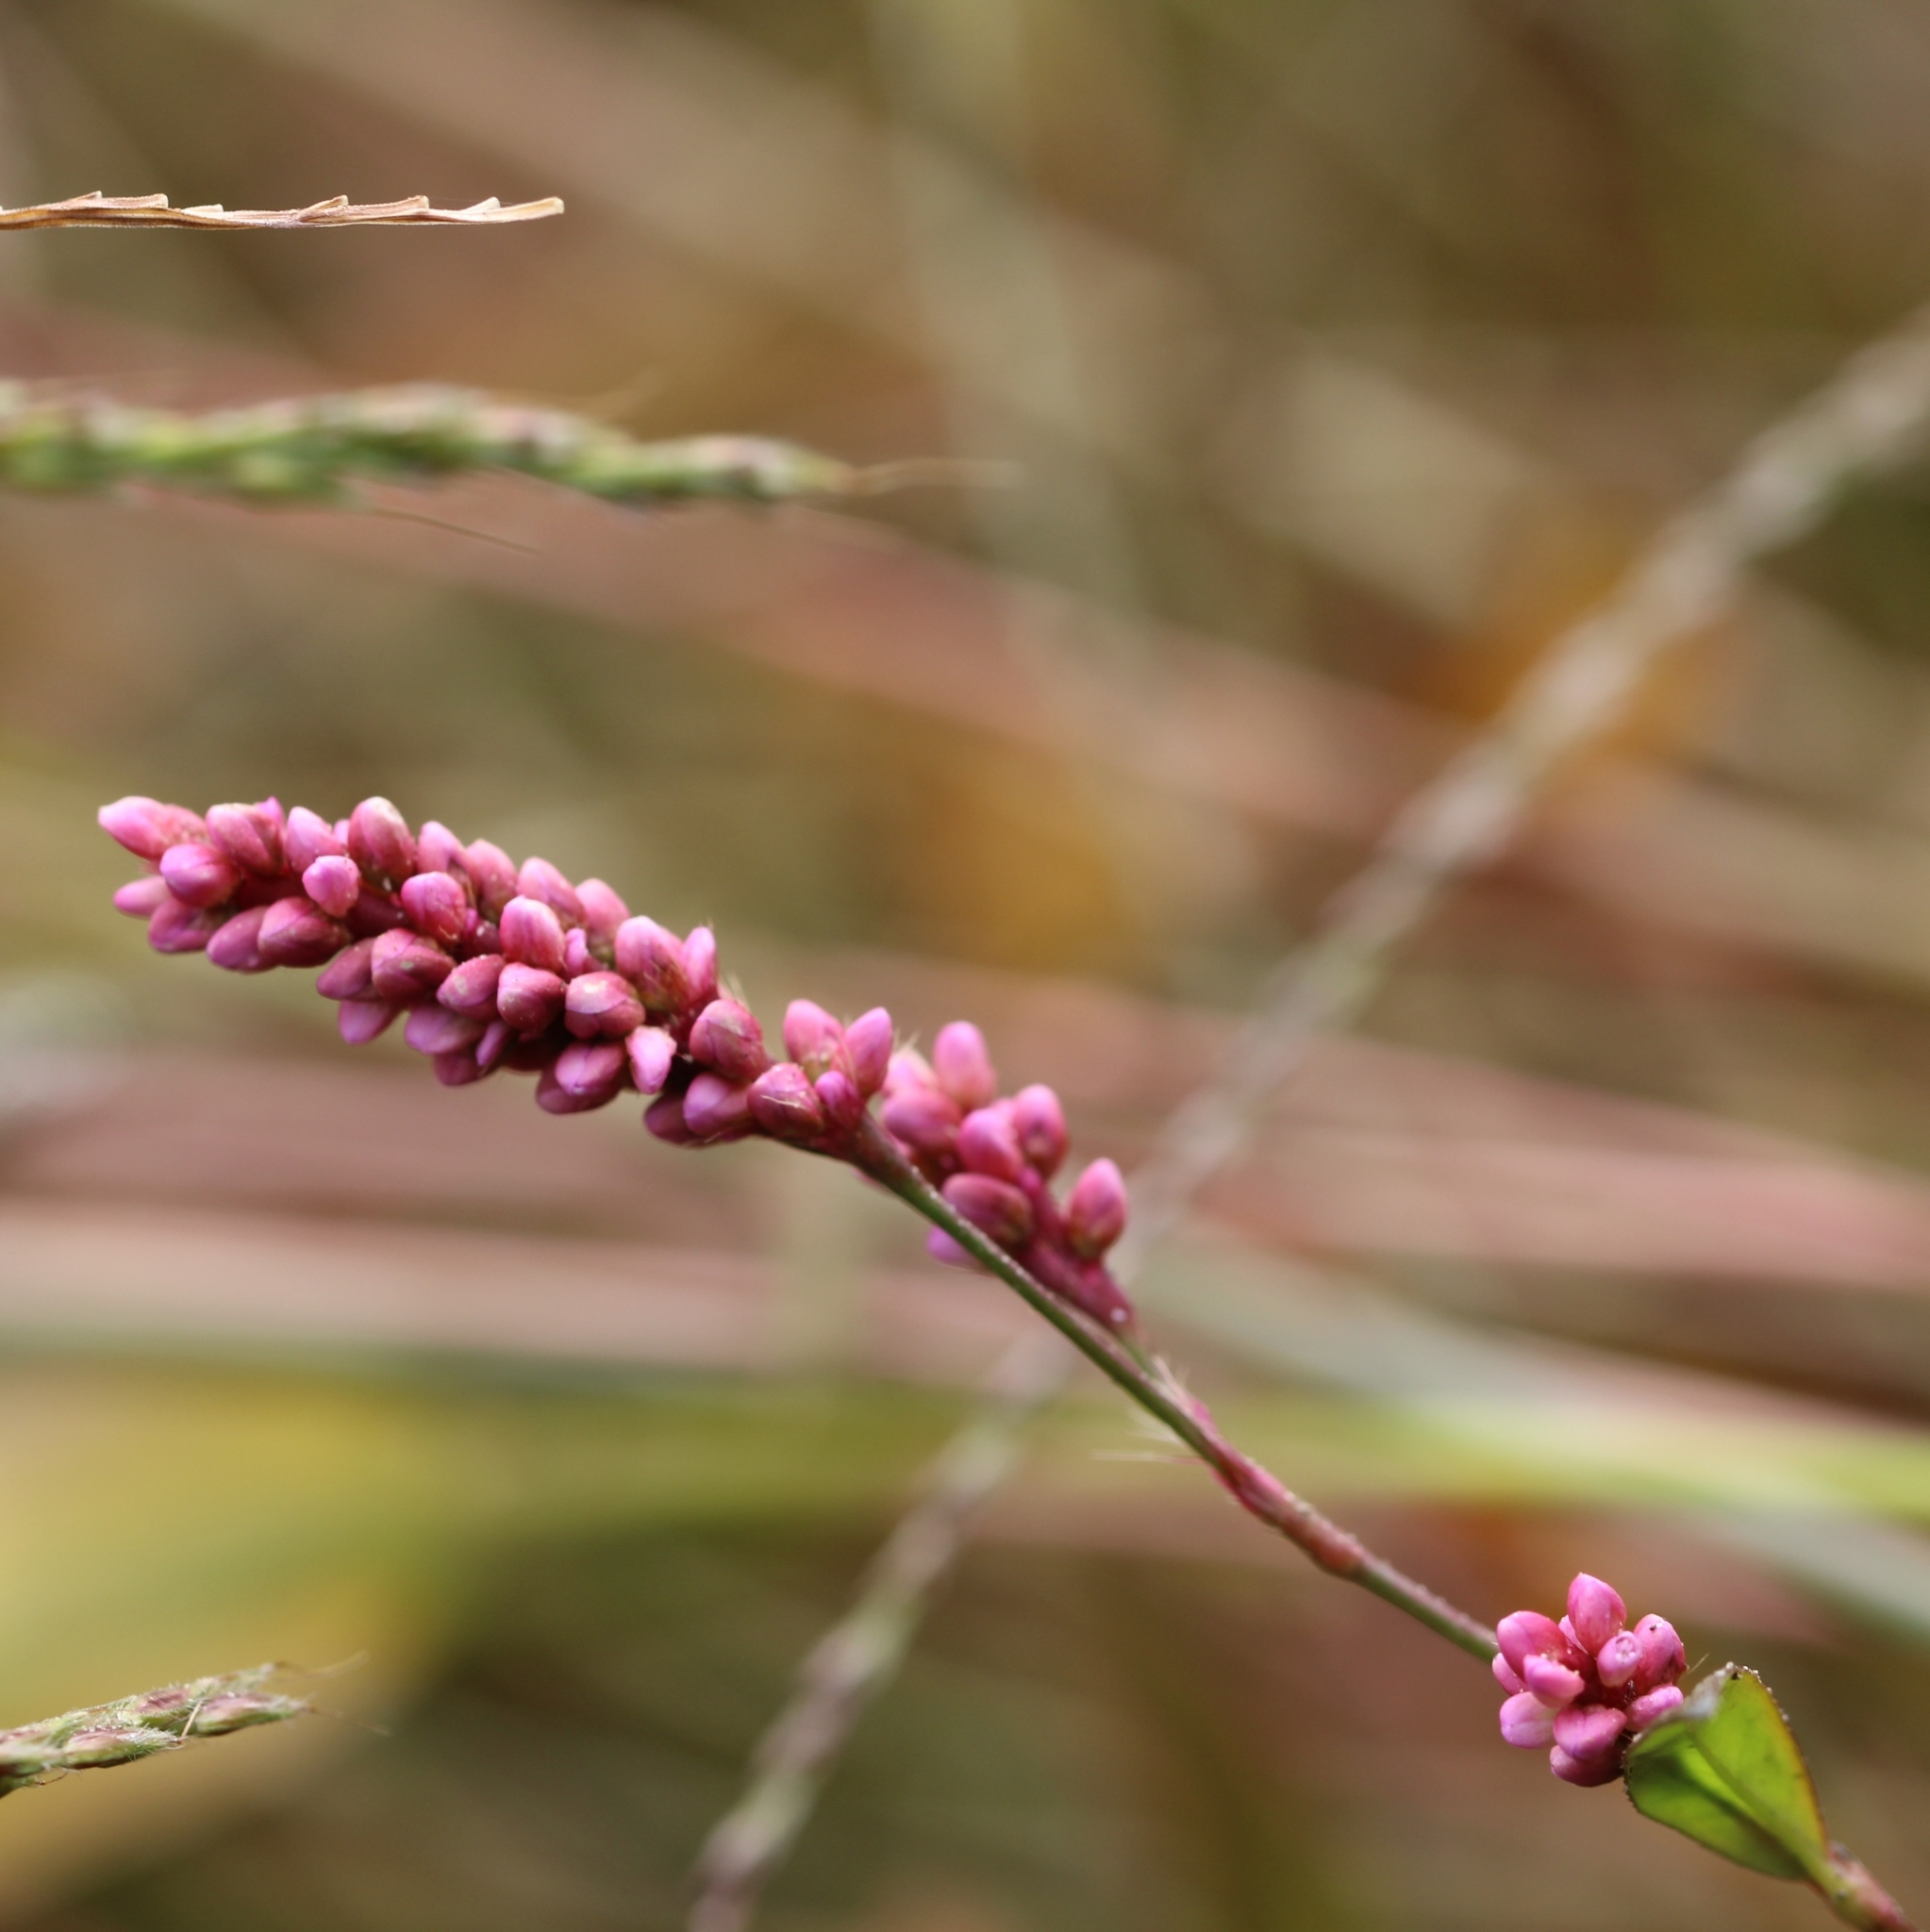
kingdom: Plantae
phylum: Tracheophyta
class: Magnoliopsida
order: Caryophyllales
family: Polygonaceae
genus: Persicaria
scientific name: Persicaria longiseta
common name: Bristly lady's-thumb
